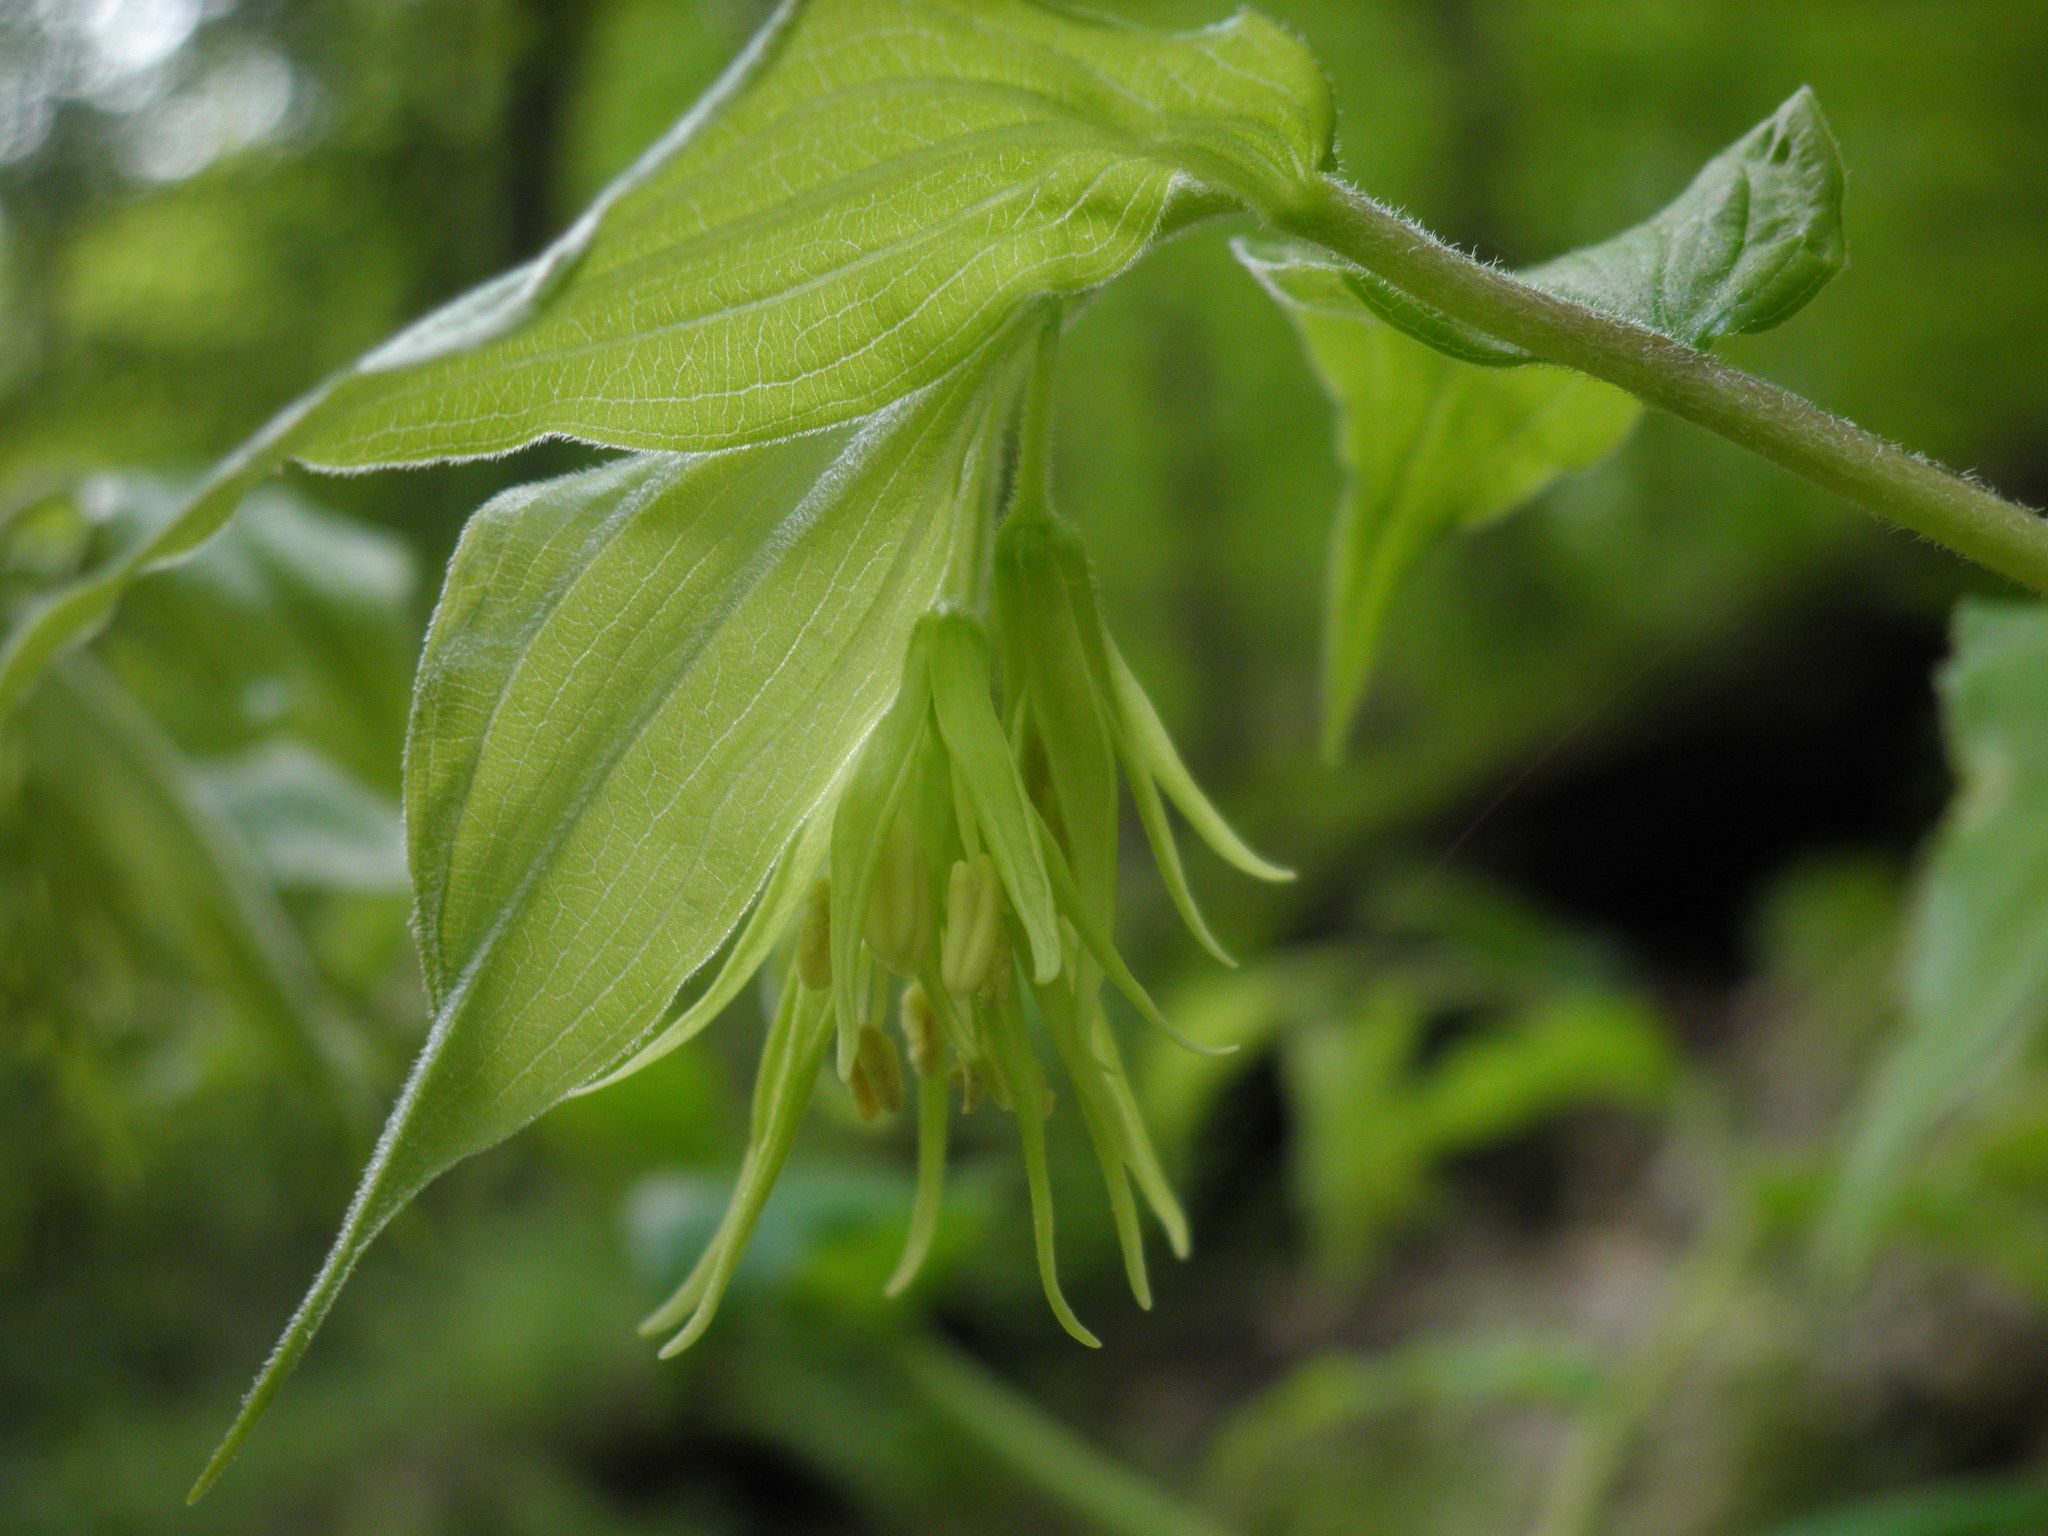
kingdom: Plantae
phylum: Tracheophyta
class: Liliopsida
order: Liliales
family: Liliaceae
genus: Prosartes
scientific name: Prosartes lanuginosa
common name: Hairy mandarin
